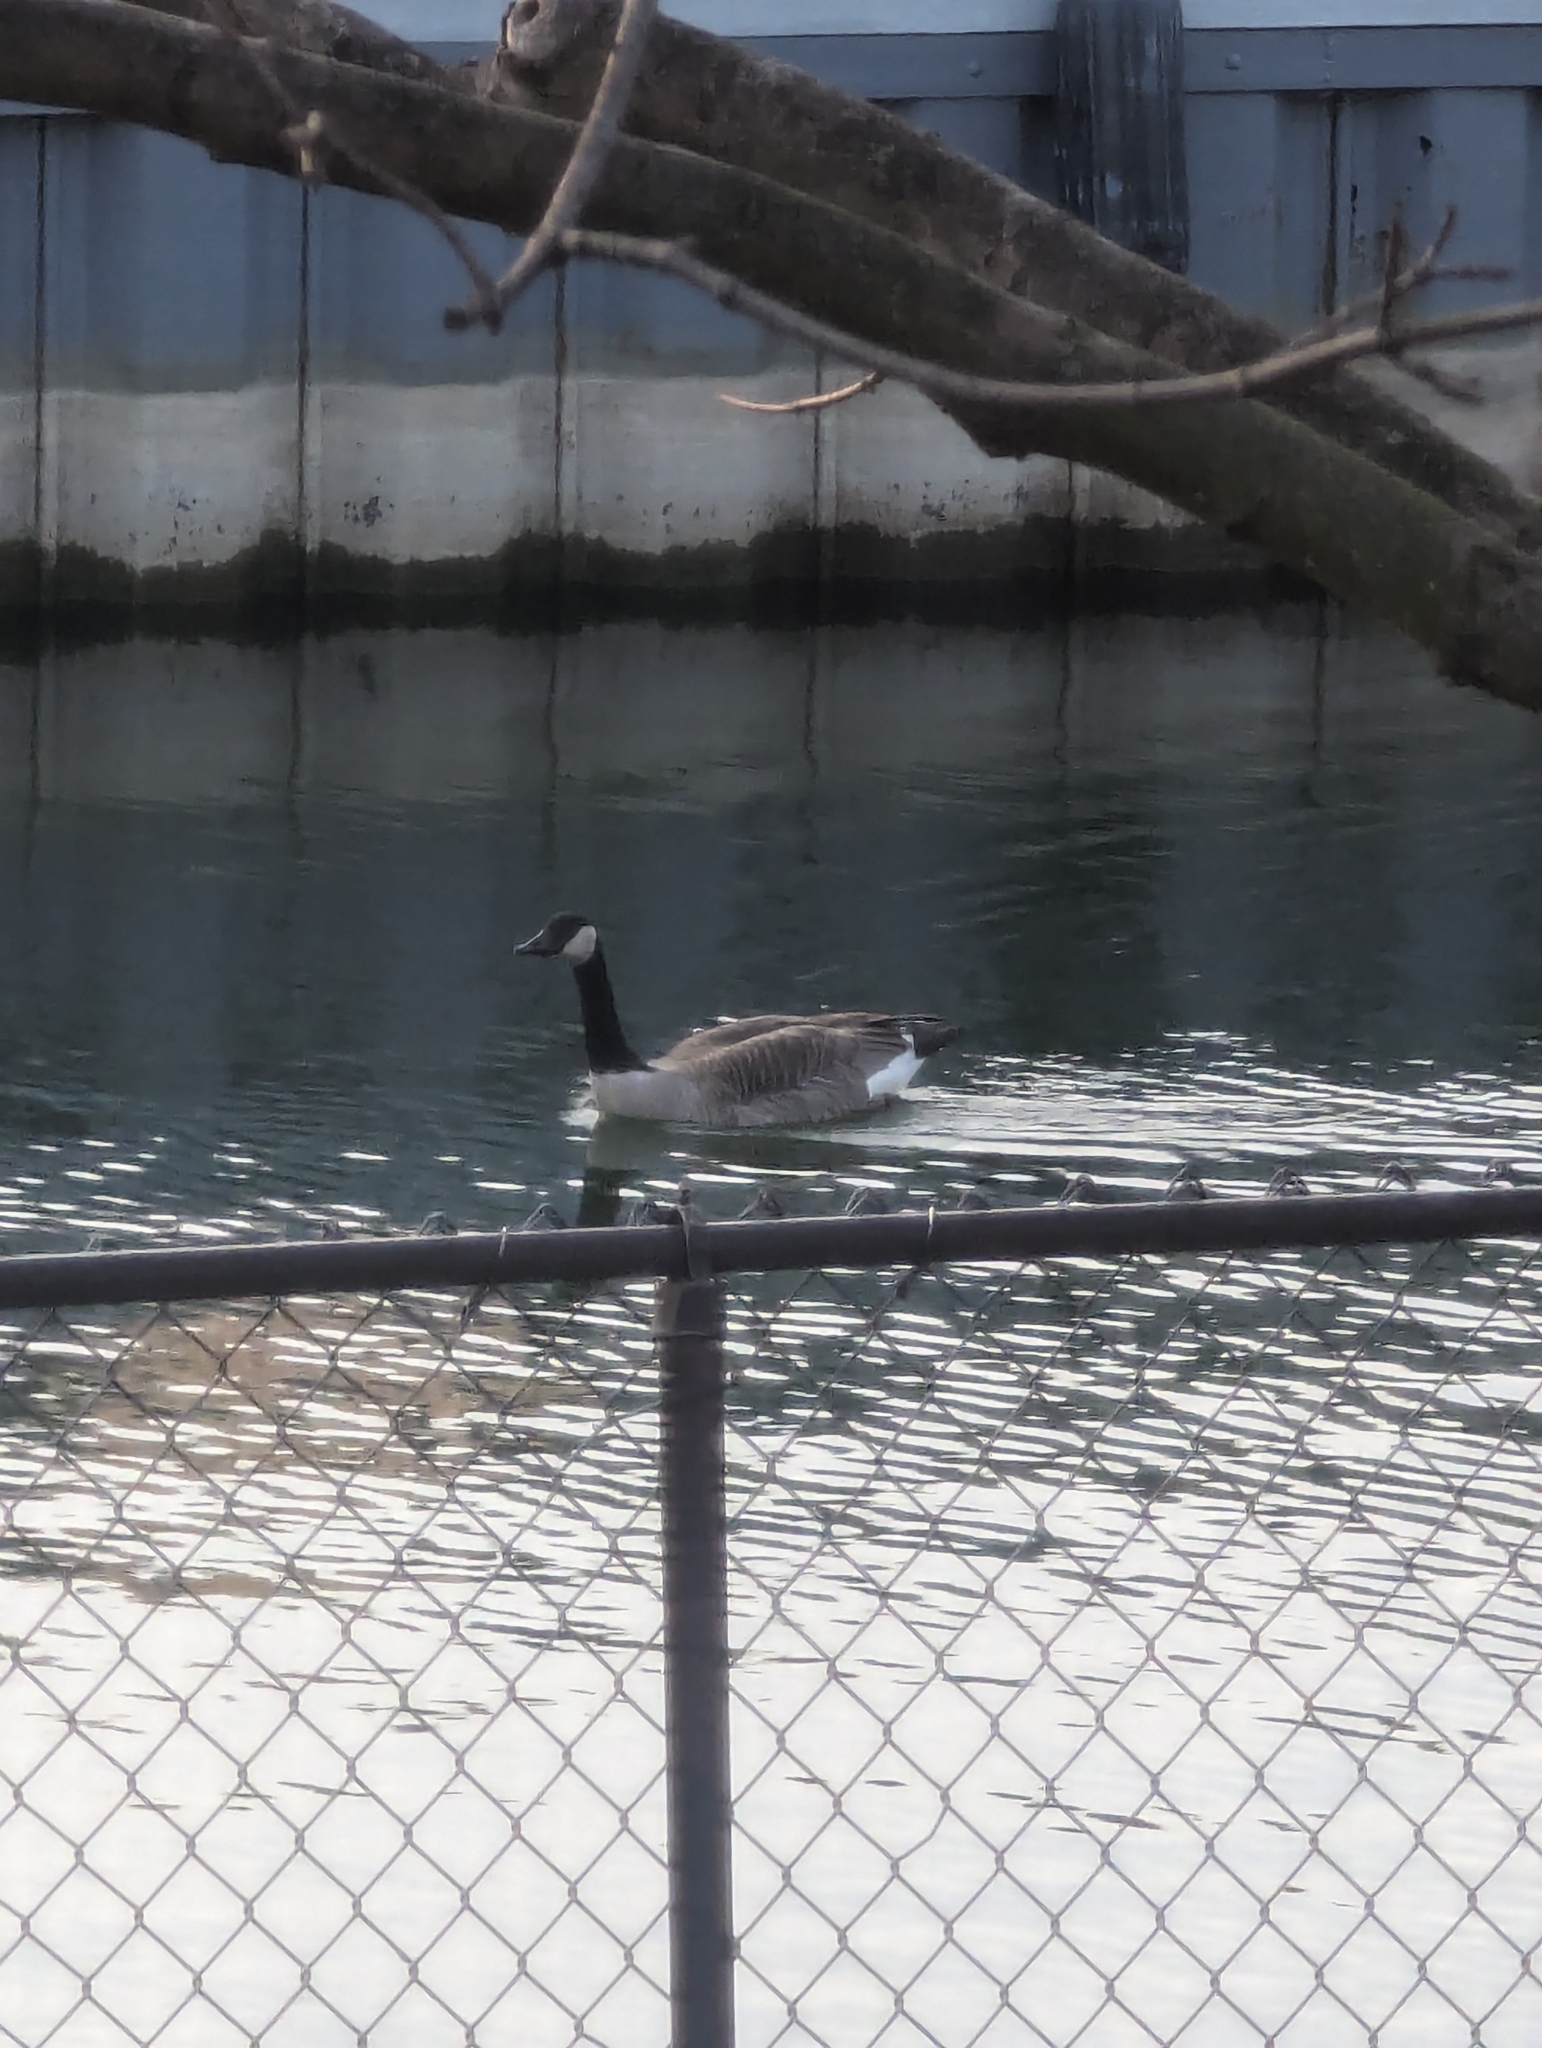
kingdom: Animalia
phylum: Chordata
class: Aves
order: Anseriformes
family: Anatidae
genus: Branta
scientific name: Branta canadensis
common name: Canada goose
